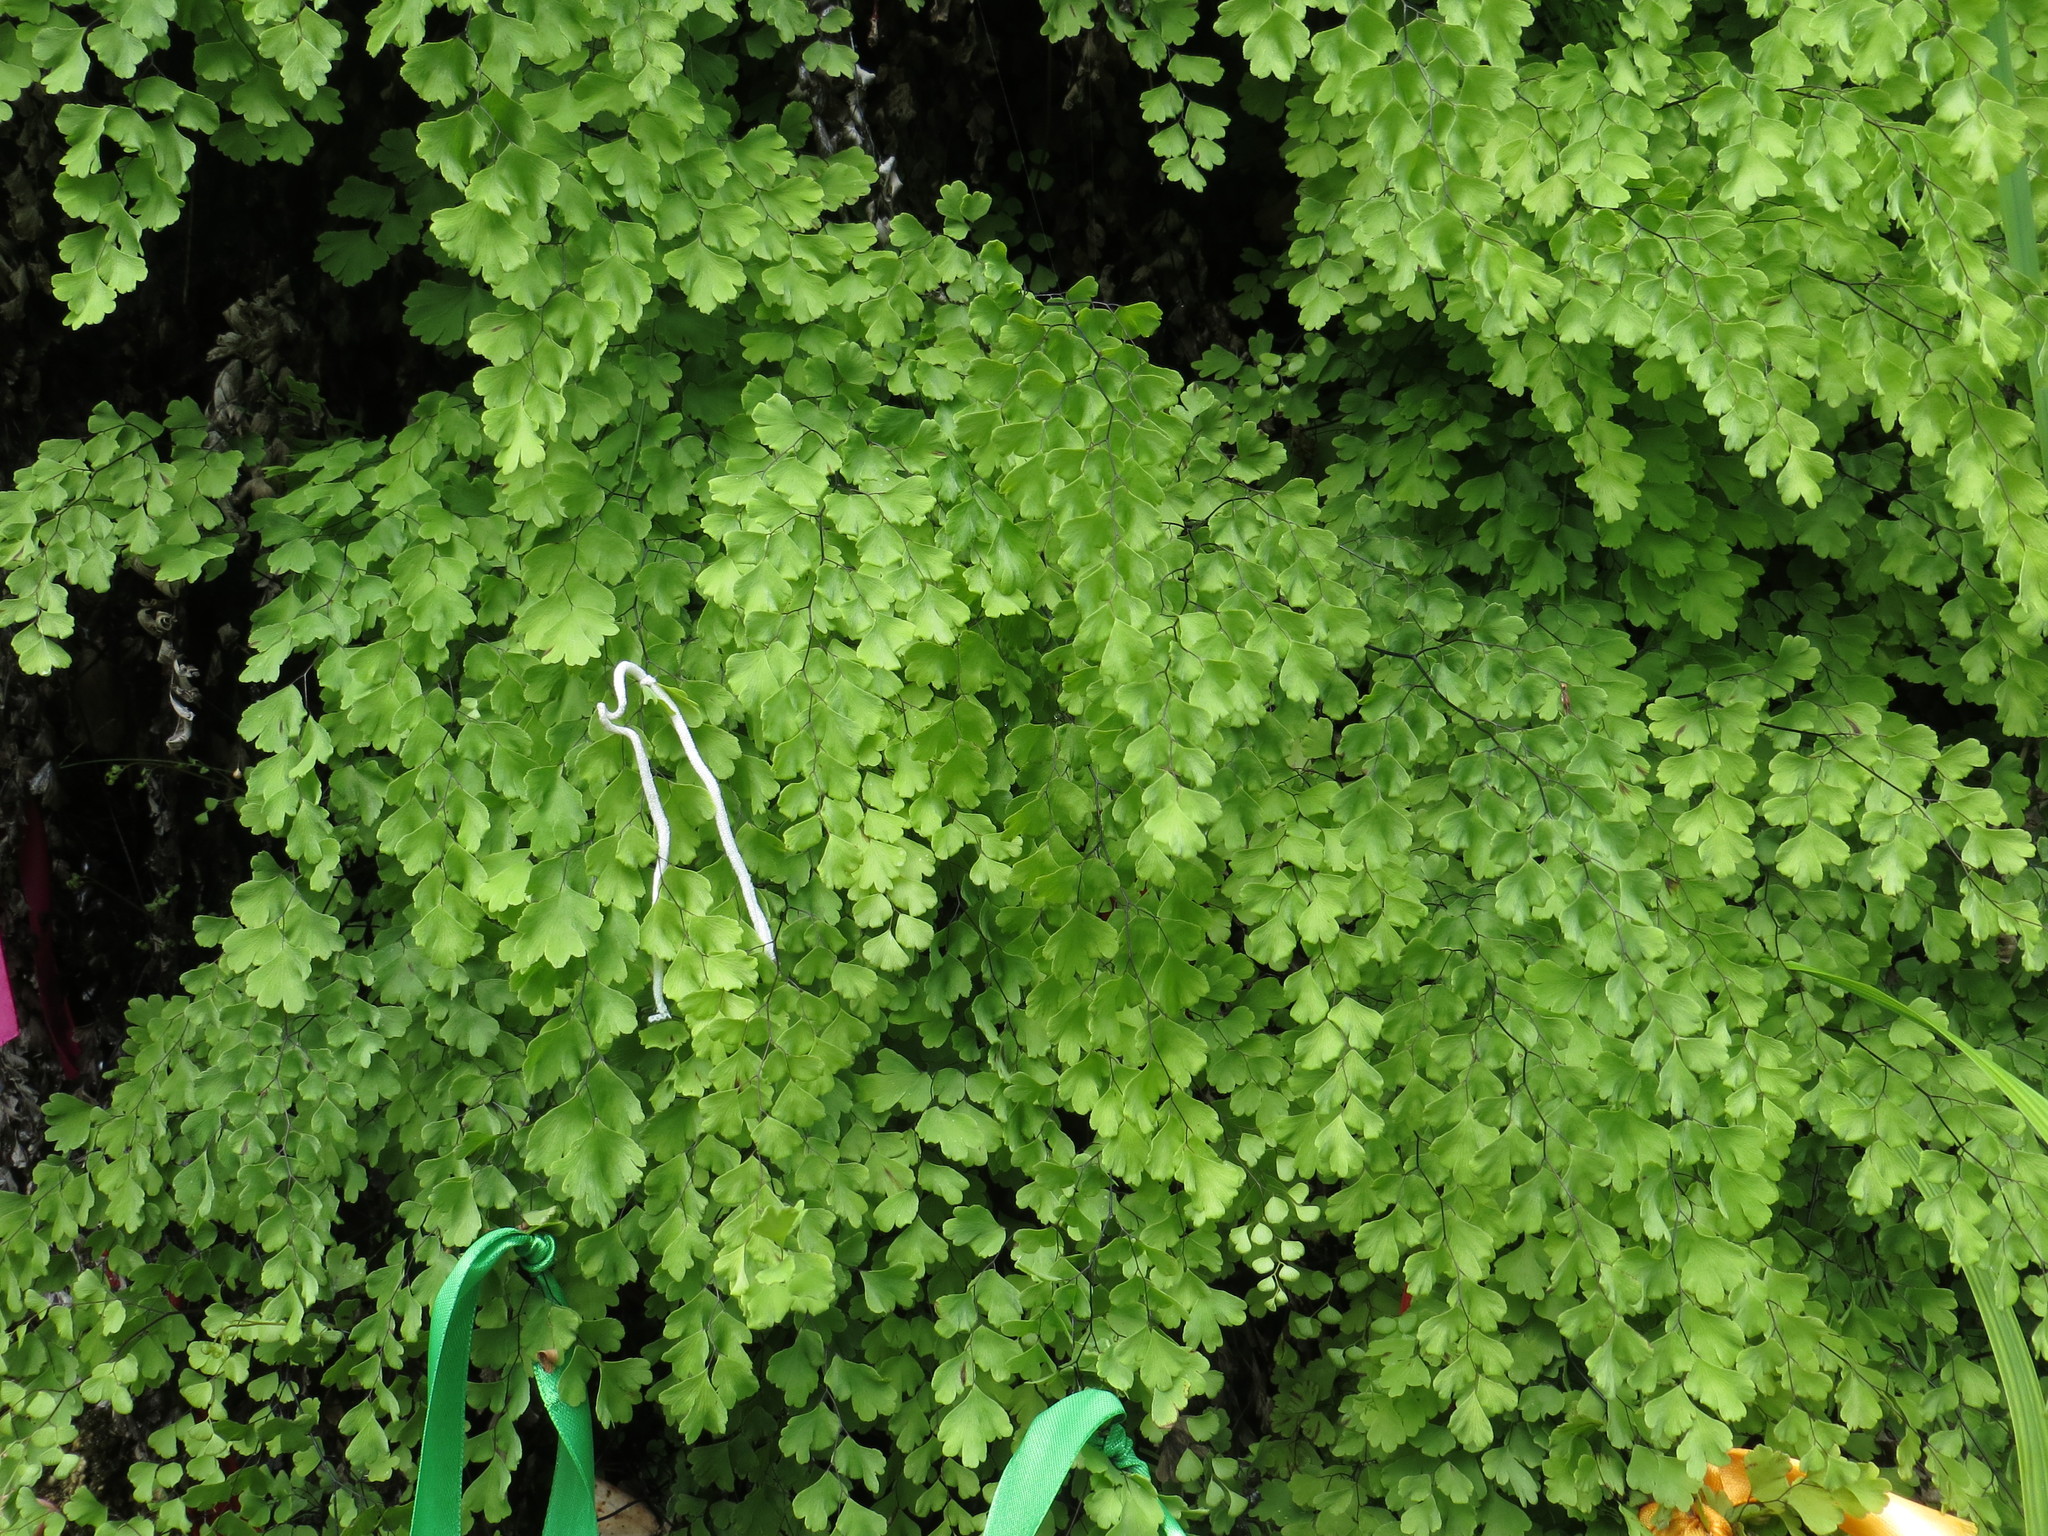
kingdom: Plantae
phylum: Tracheophyta
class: Polypodiopsida
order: Polypodiales
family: Pteridaceae
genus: Adiantum
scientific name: Adiantum capillus-veneris
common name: Maidenhair fern
